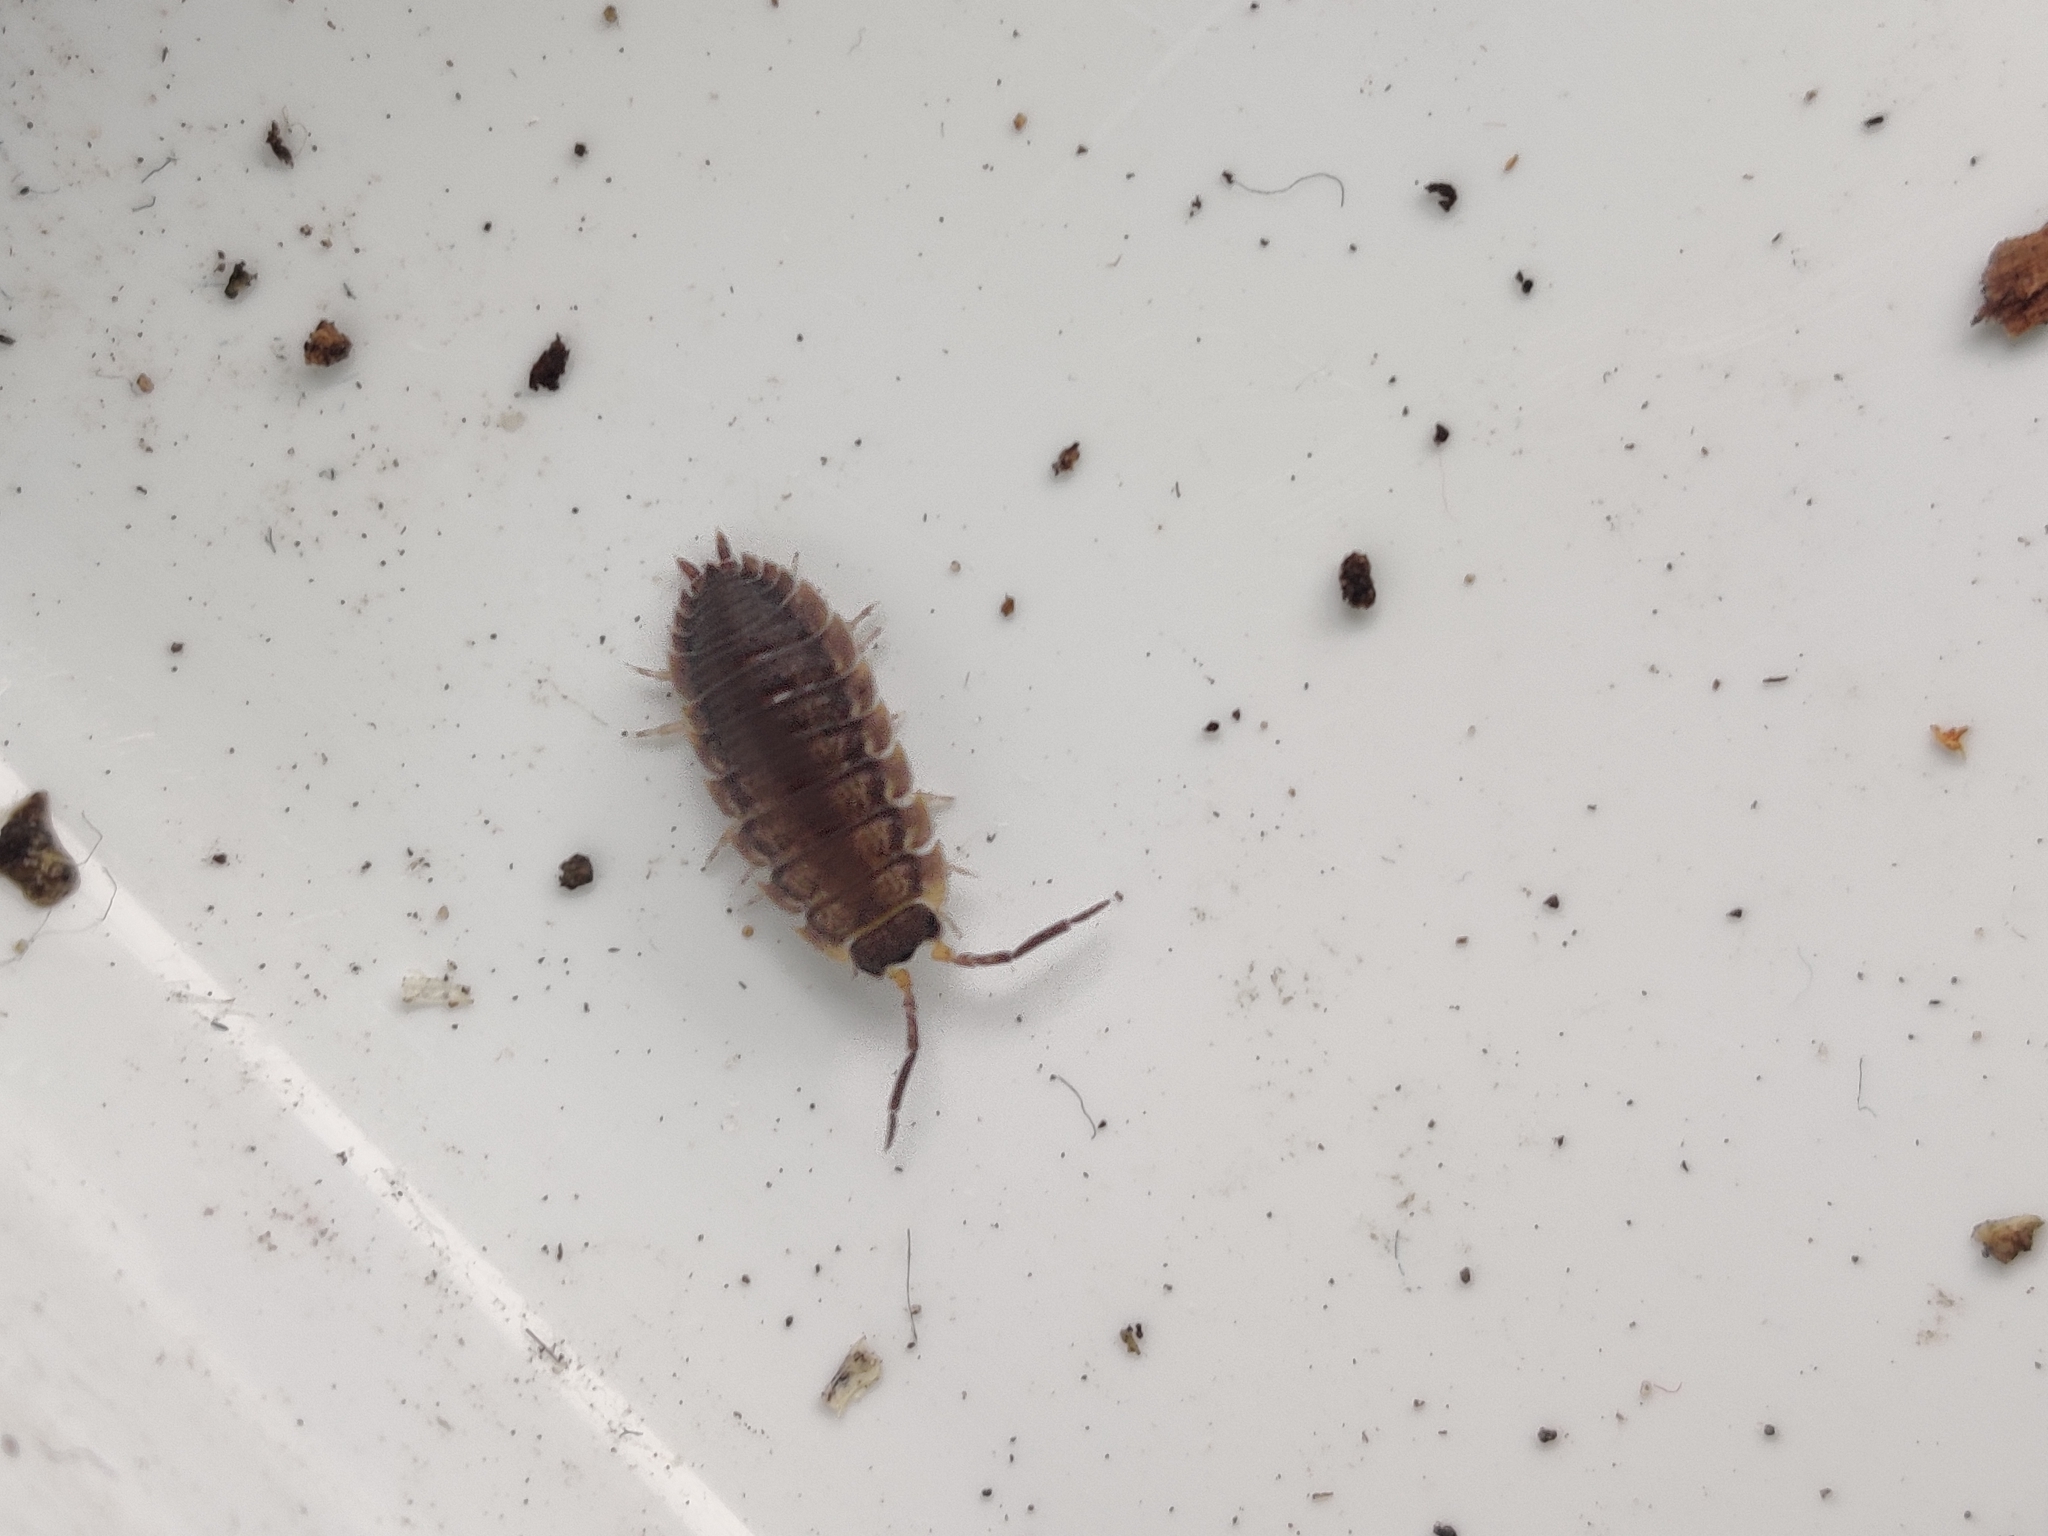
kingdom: Animalia
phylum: Arthropoda
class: Malacostraca
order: Isopoda
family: Porcellionidae
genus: Porcellio
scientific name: Porcellio scaber
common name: Common rough woodlouse
